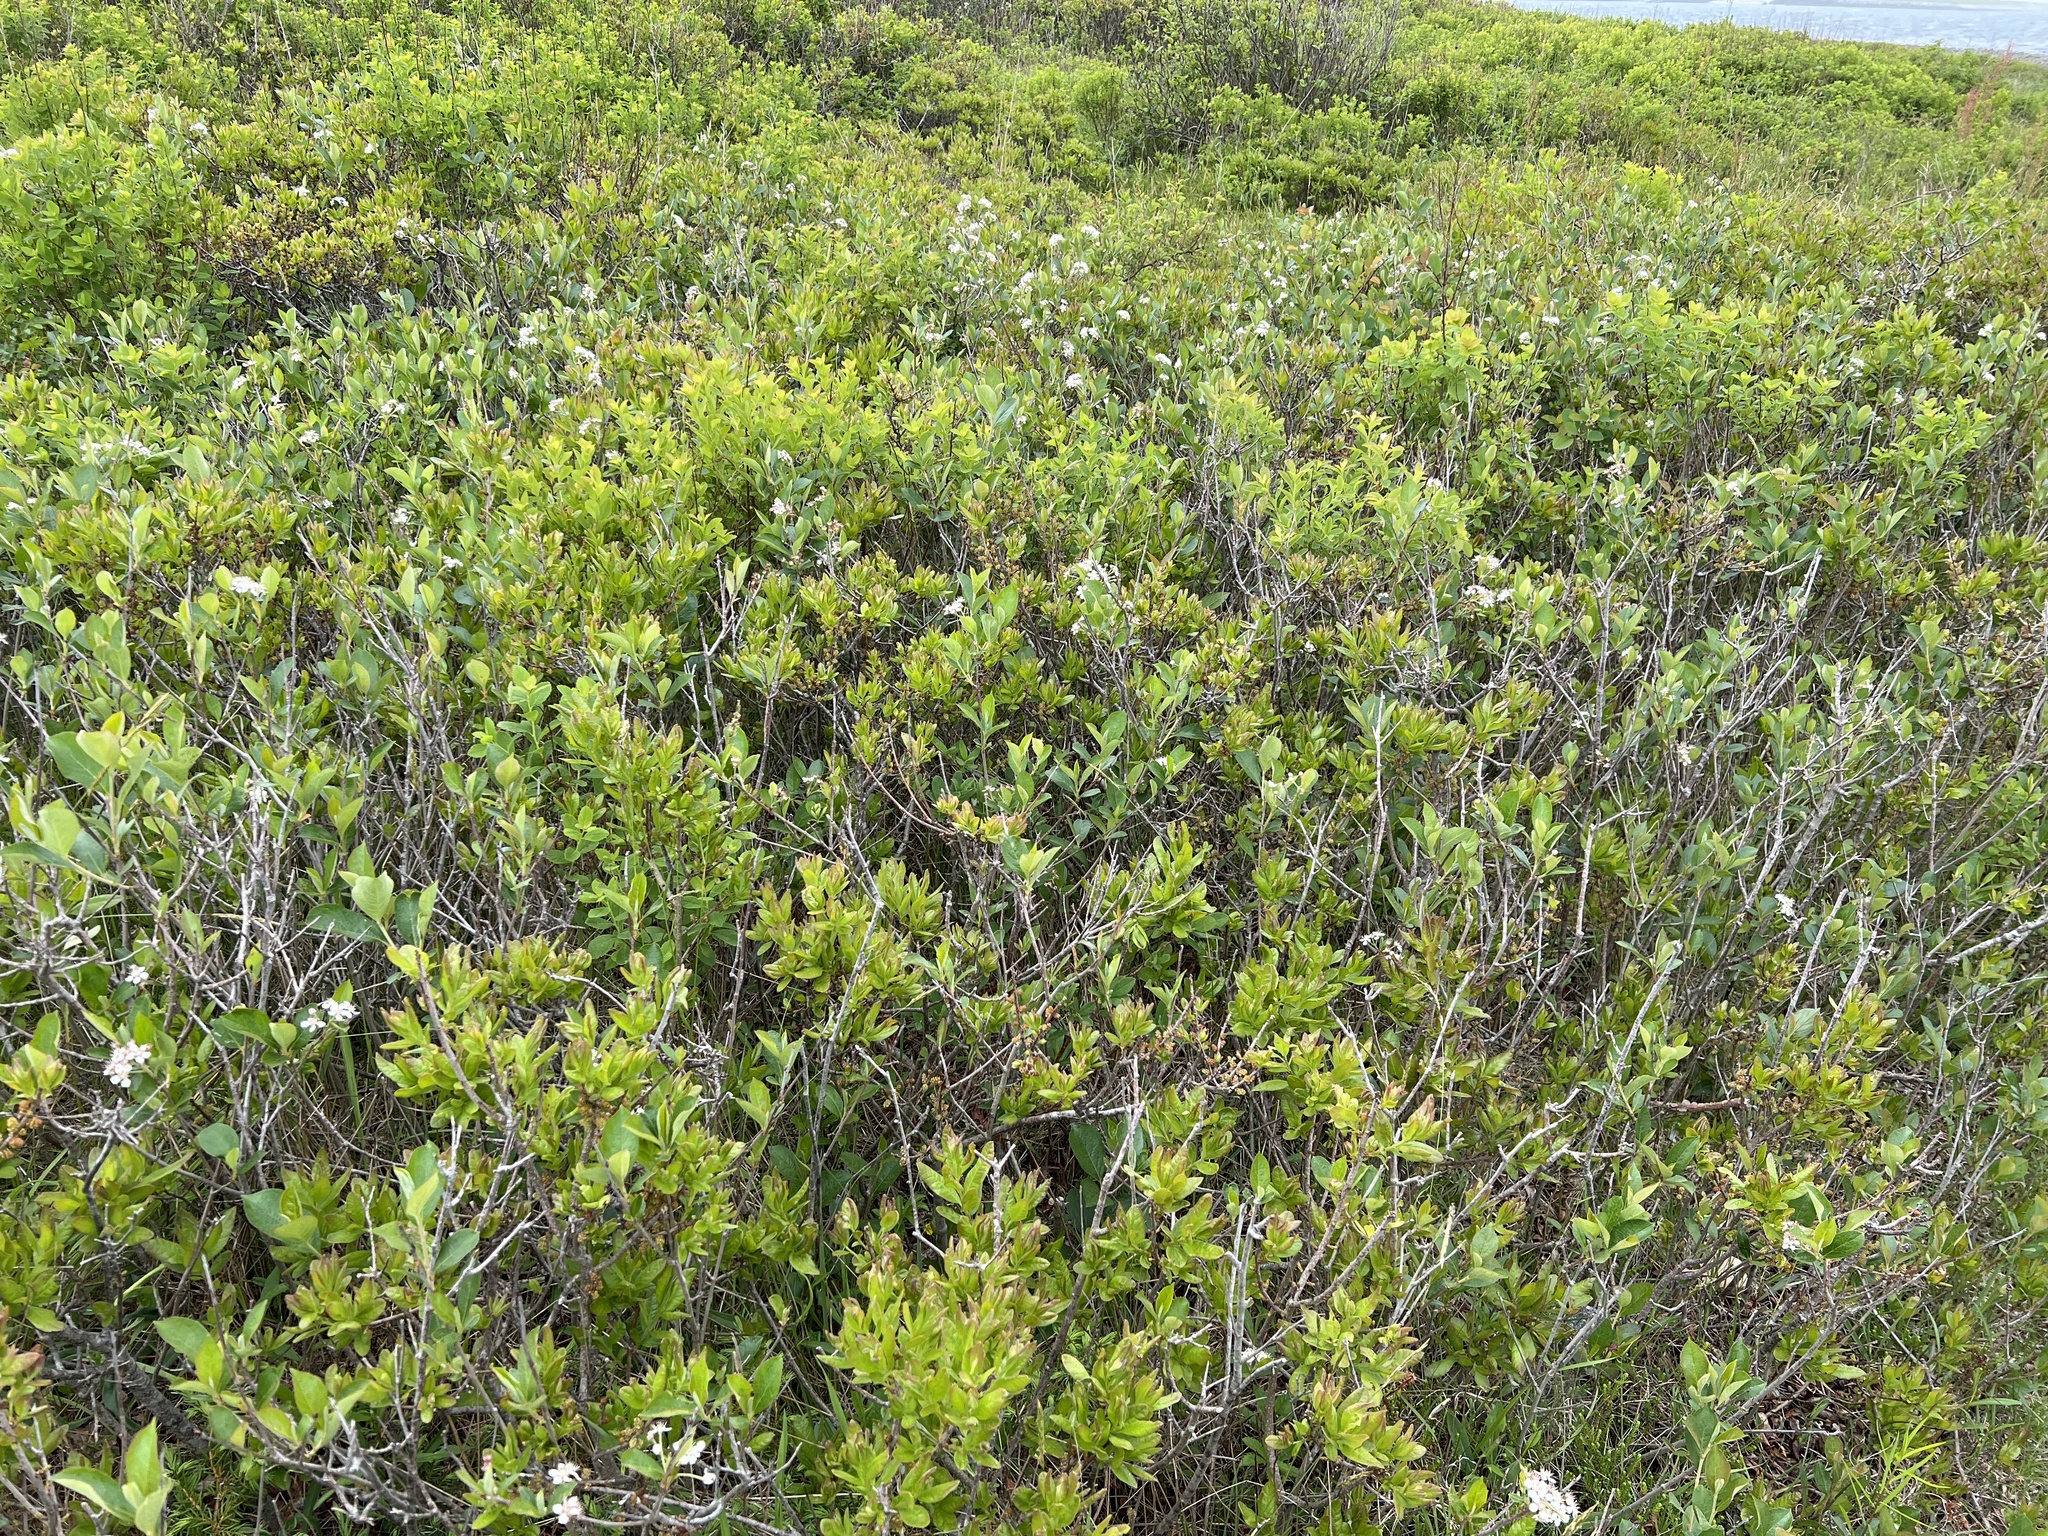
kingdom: Plantae
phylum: Tracheophyta
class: Magnoliopsida
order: Rosales
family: Rosaceae
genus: Aronia
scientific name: Aronia melanocarpa
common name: Black chokeberry
